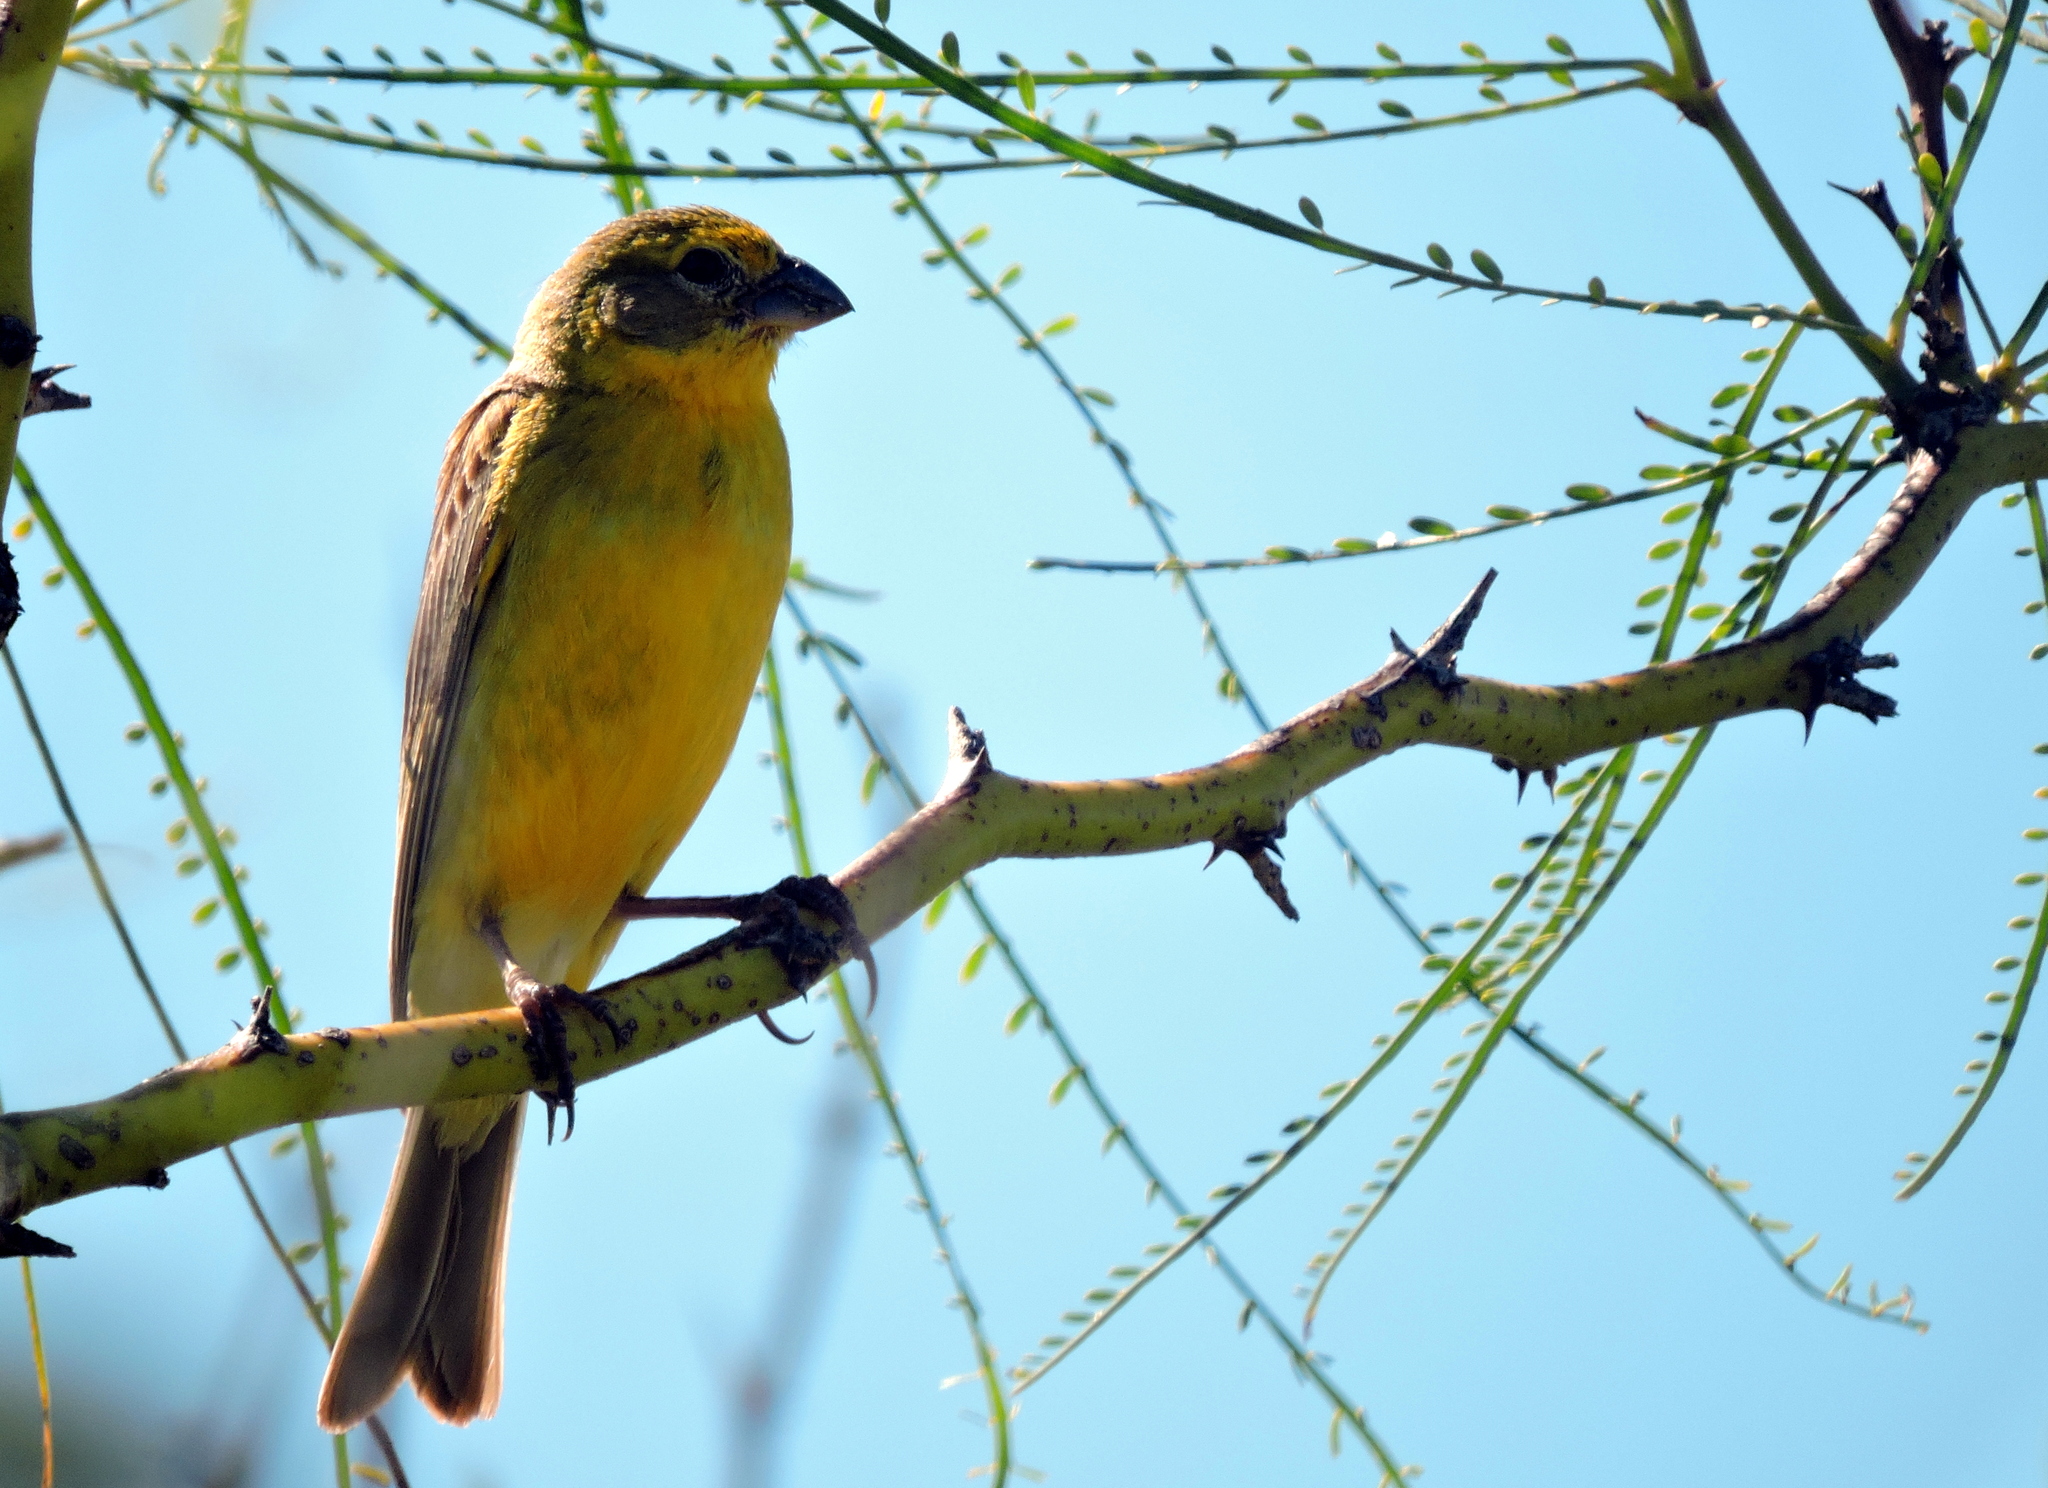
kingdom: Animalia
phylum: Chordata
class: Aves
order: Passeriformes
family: Thraupidae
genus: Sicalis
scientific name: Sicalis luteola
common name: Grassland yellow-finch
